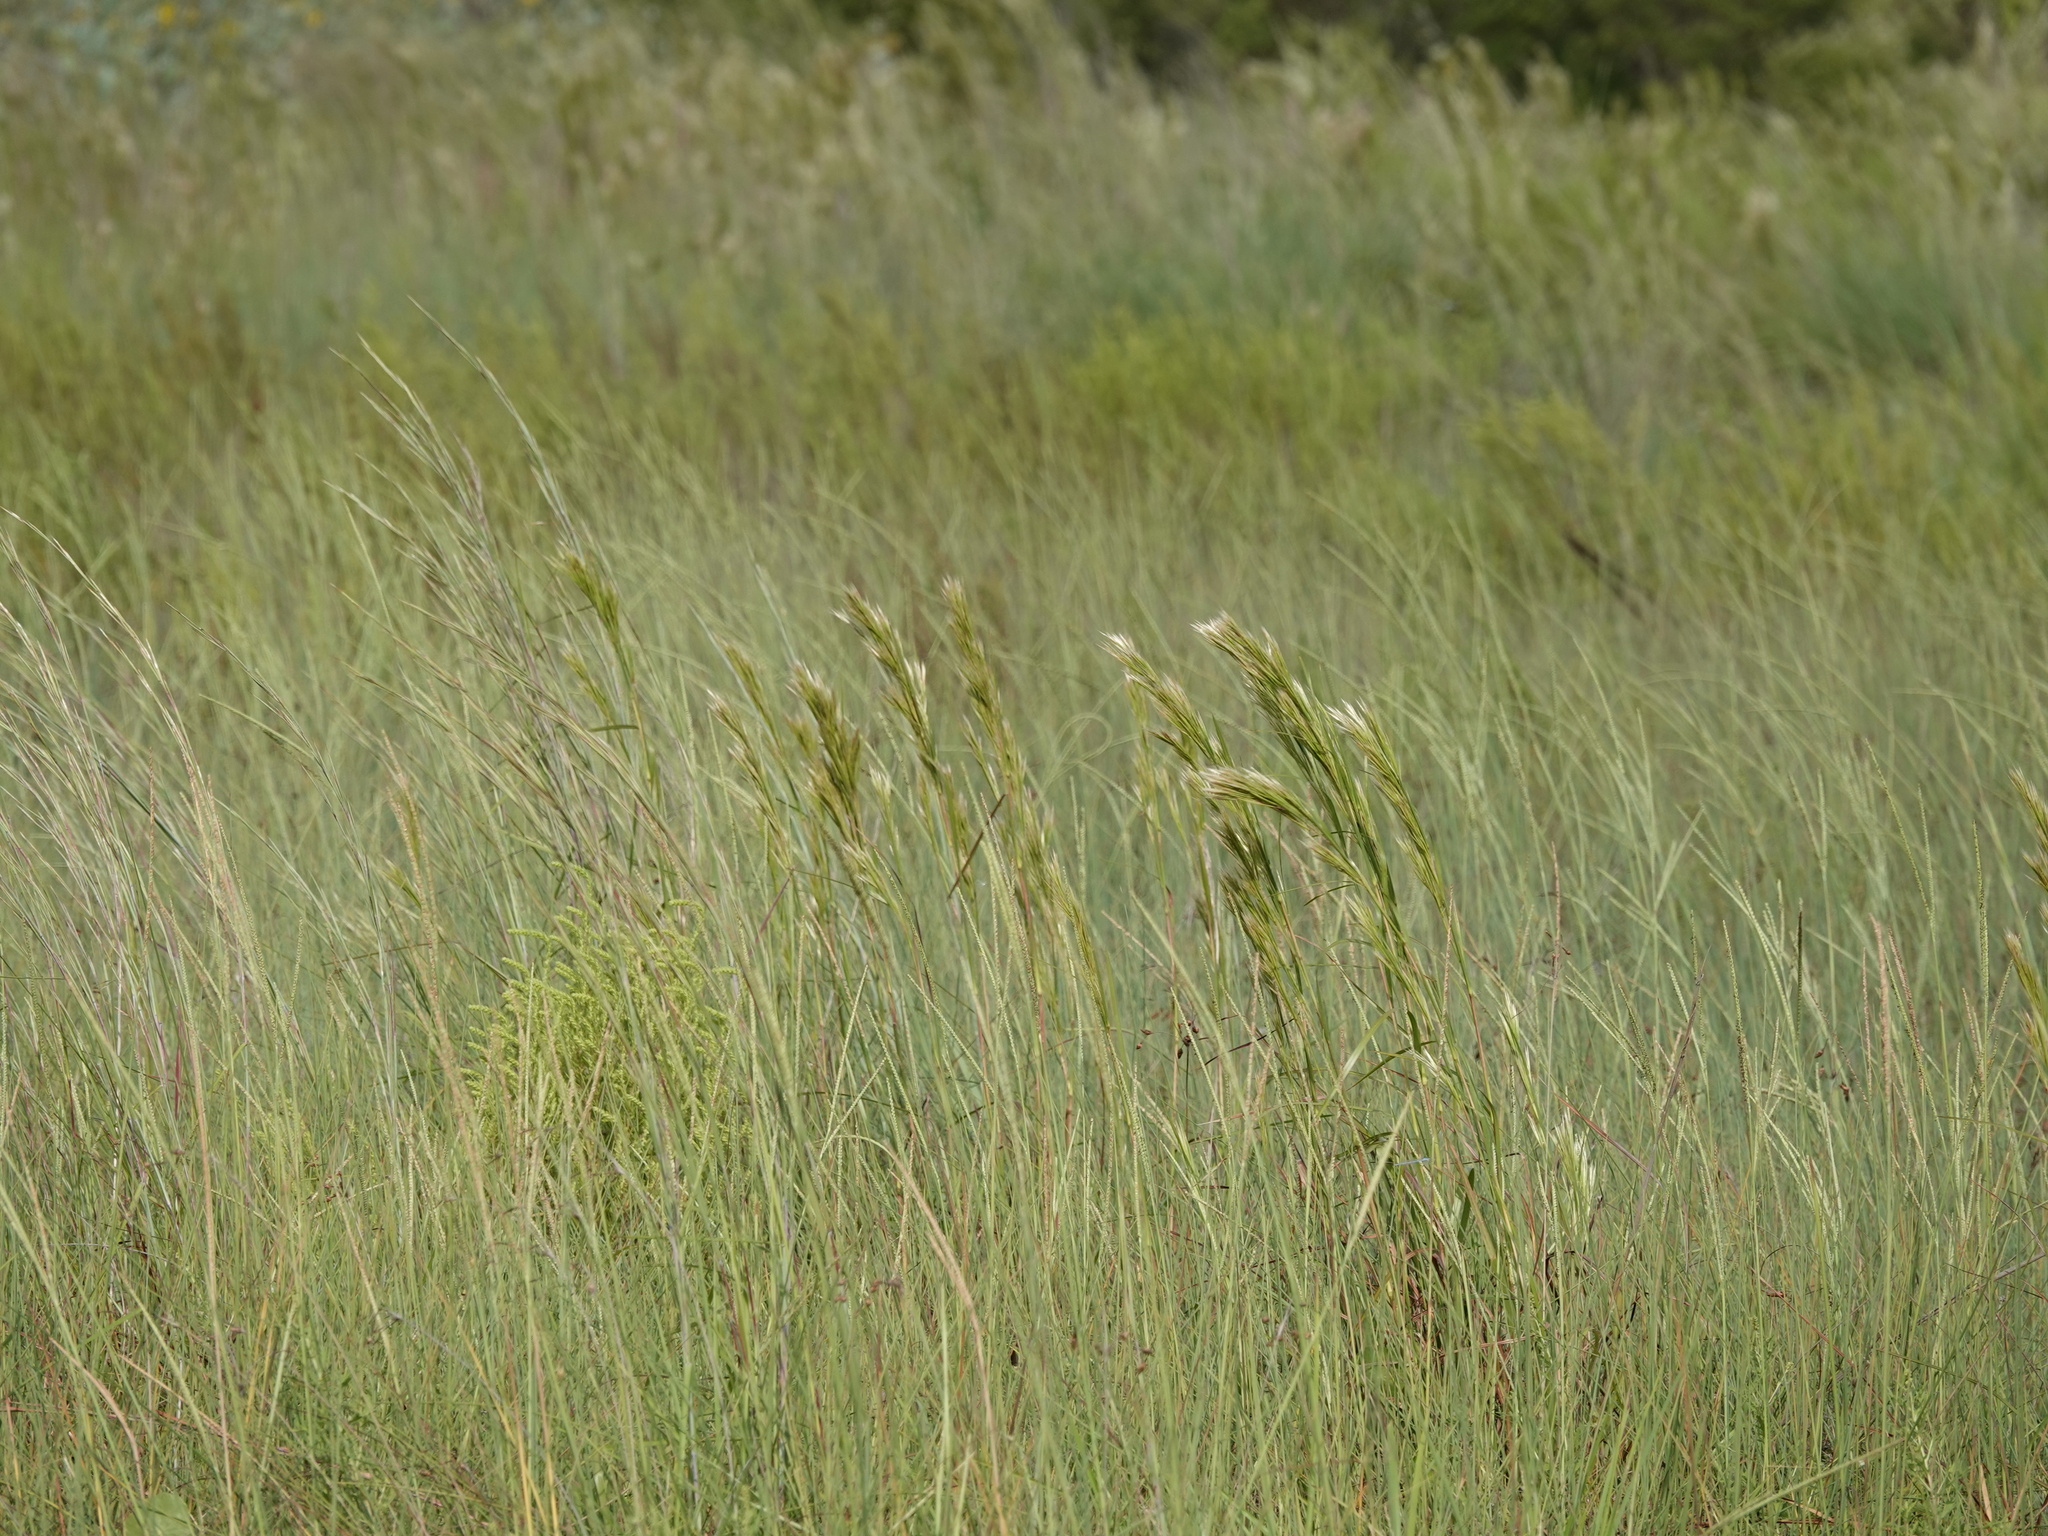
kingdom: Plantae
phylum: Tracheophyta
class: Liliopsida
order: Poales
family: Poaceae
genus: Andropogon
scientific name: Andropogon tenuispatheus
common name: Bushy bluestem
